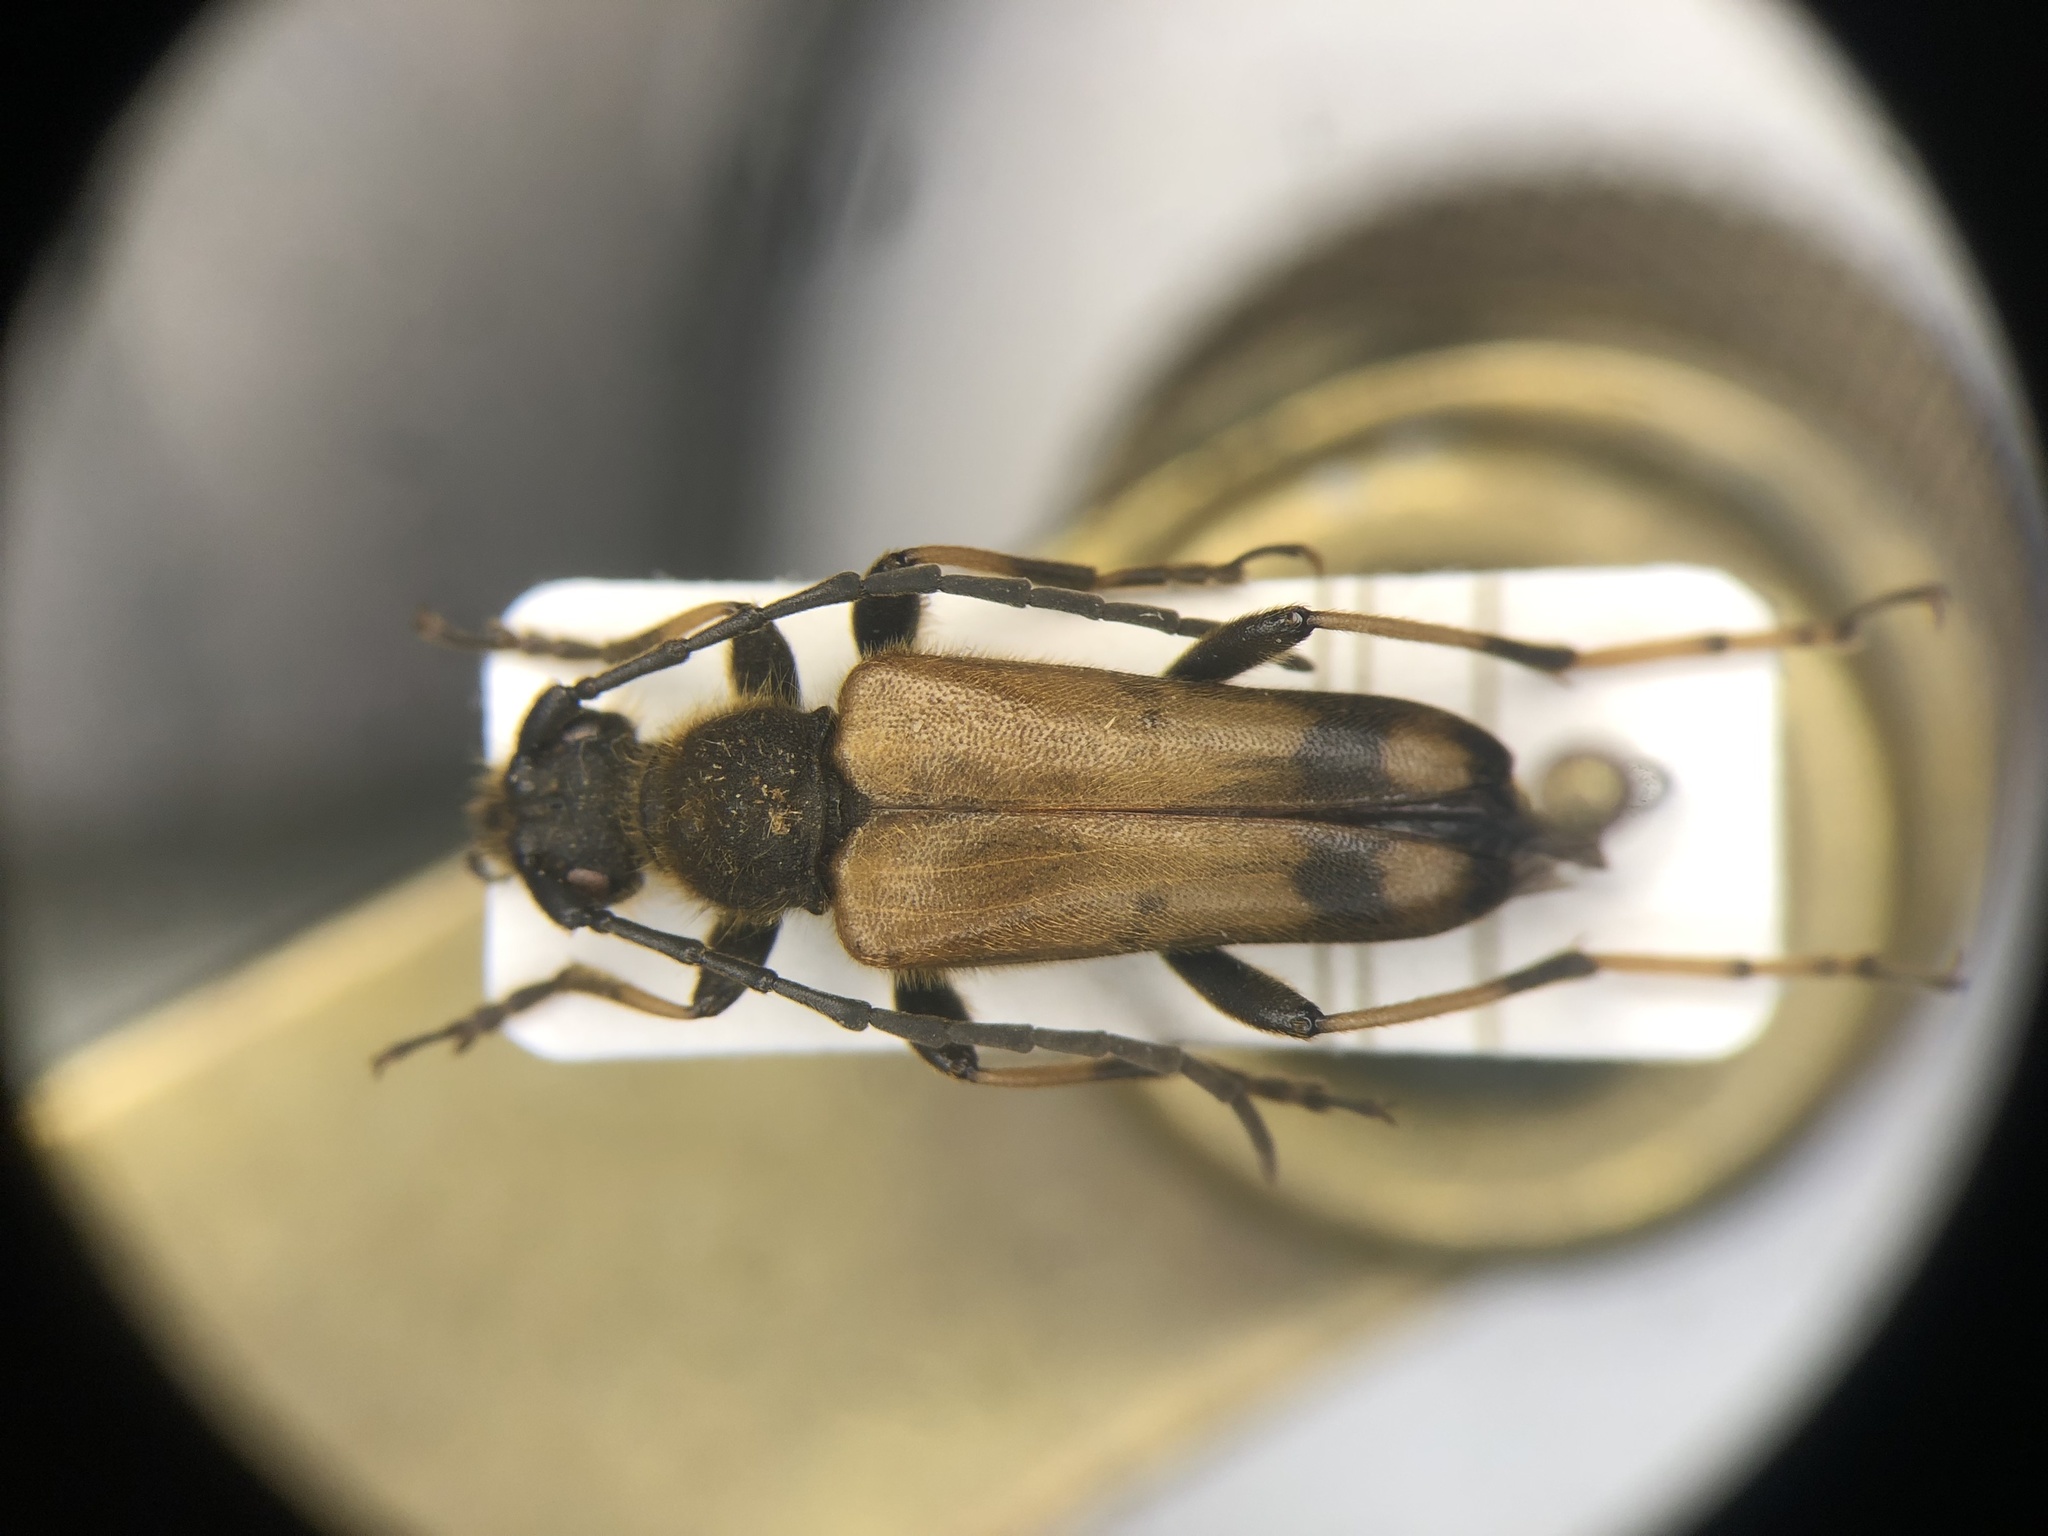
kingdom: Animalia
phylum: Arthropoda
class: Insecta
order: Coleoptera
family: Cerambycidae
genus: Xestoleptura
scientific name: Xestoleptura tibialis
